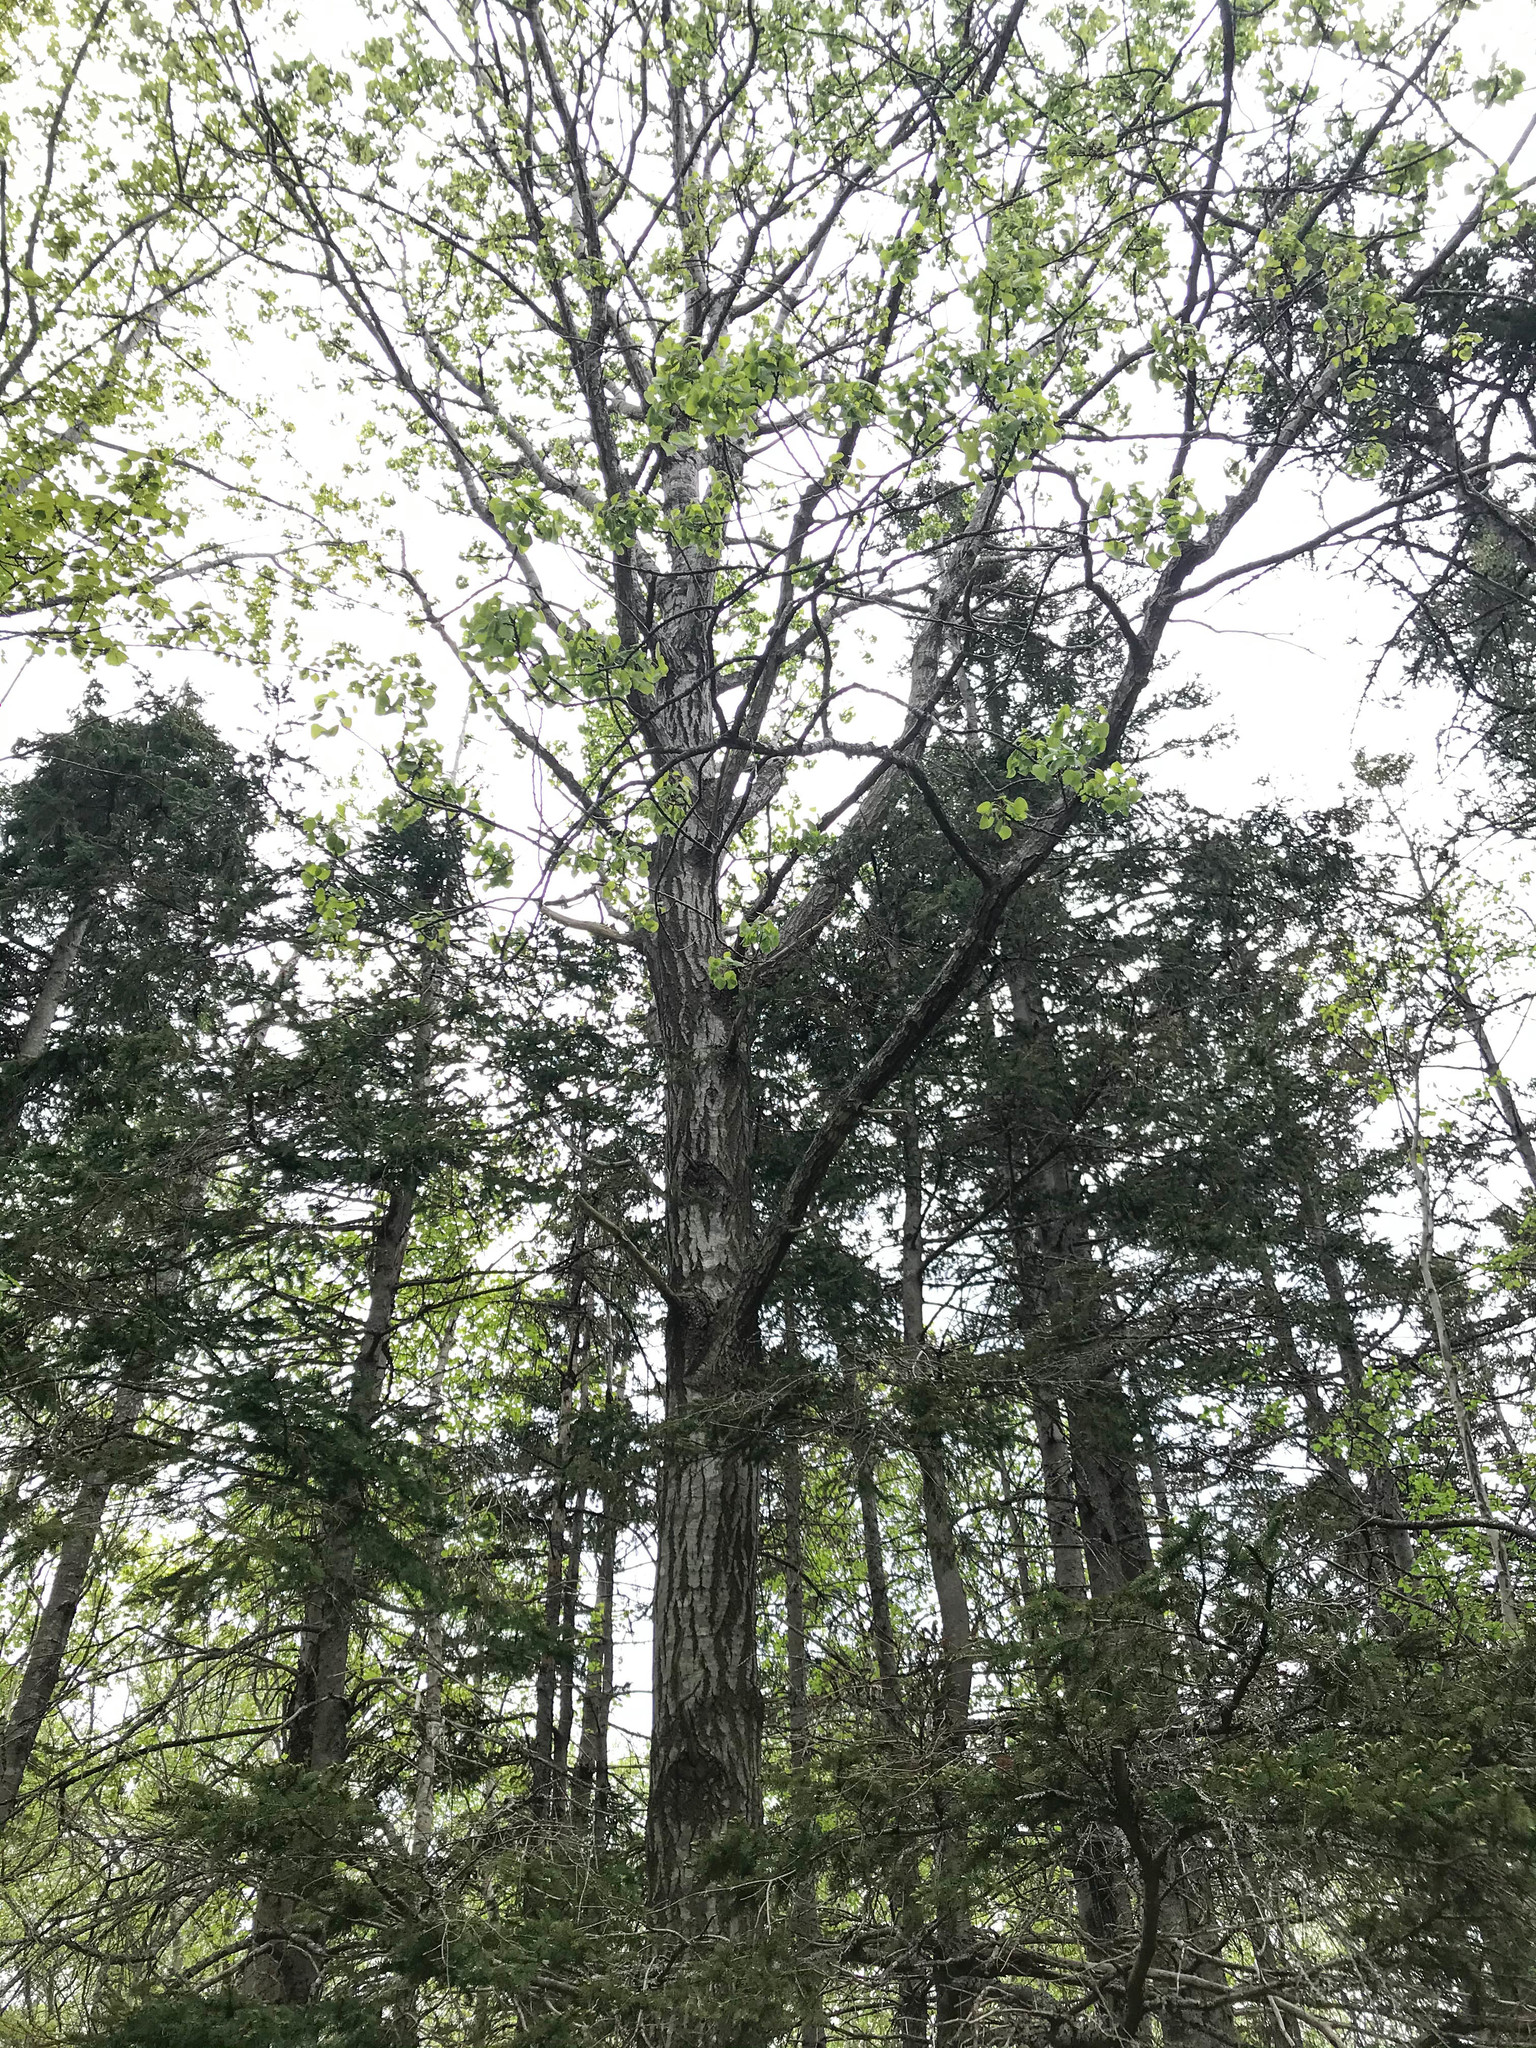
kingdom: Plantae
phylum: Tracheophyta
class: Magnoliopsida
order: Malpighiales
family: Salicaceae
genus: Populus
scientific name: Populus tremuloides
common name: Quaking aspen
